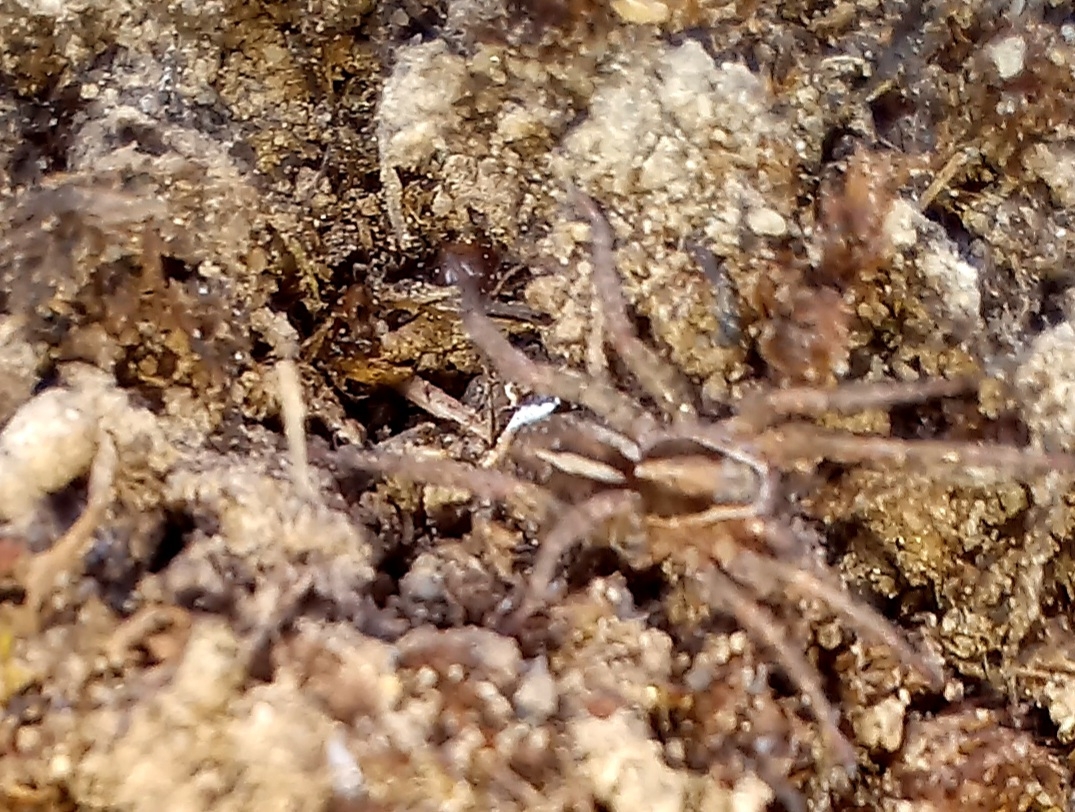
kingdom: Animalia
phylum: Arthropoda
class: Arachnida
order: Araneae
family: Lycosidae
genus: Anoteropsis
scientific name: Anoteropsis
